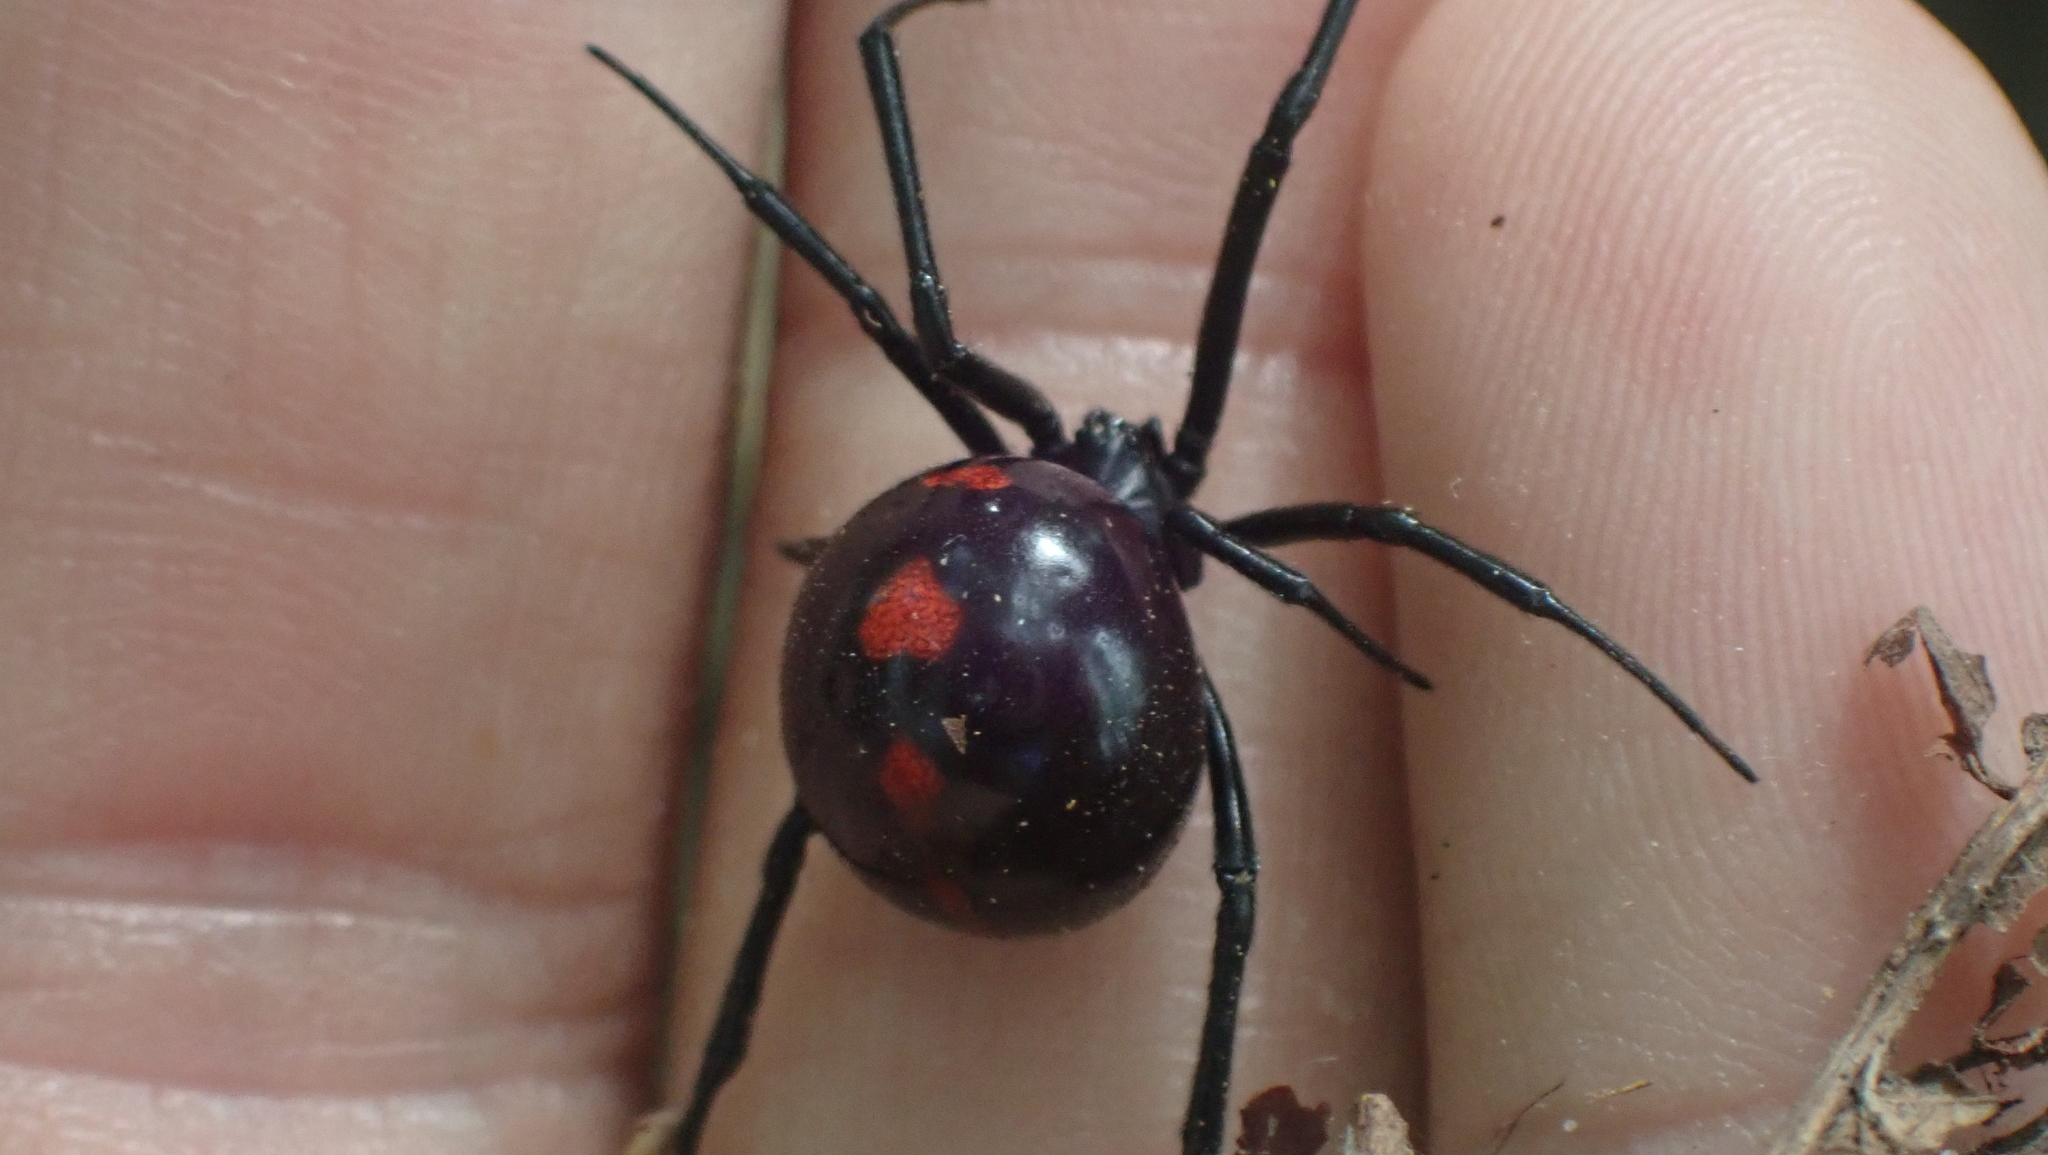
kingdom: Animalia
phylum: Arthropoda
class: Arachnida
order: Araneae
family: Theridiidae
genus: Latrodectus
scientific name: Latrodectus mactans
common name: Cobweb spiders
